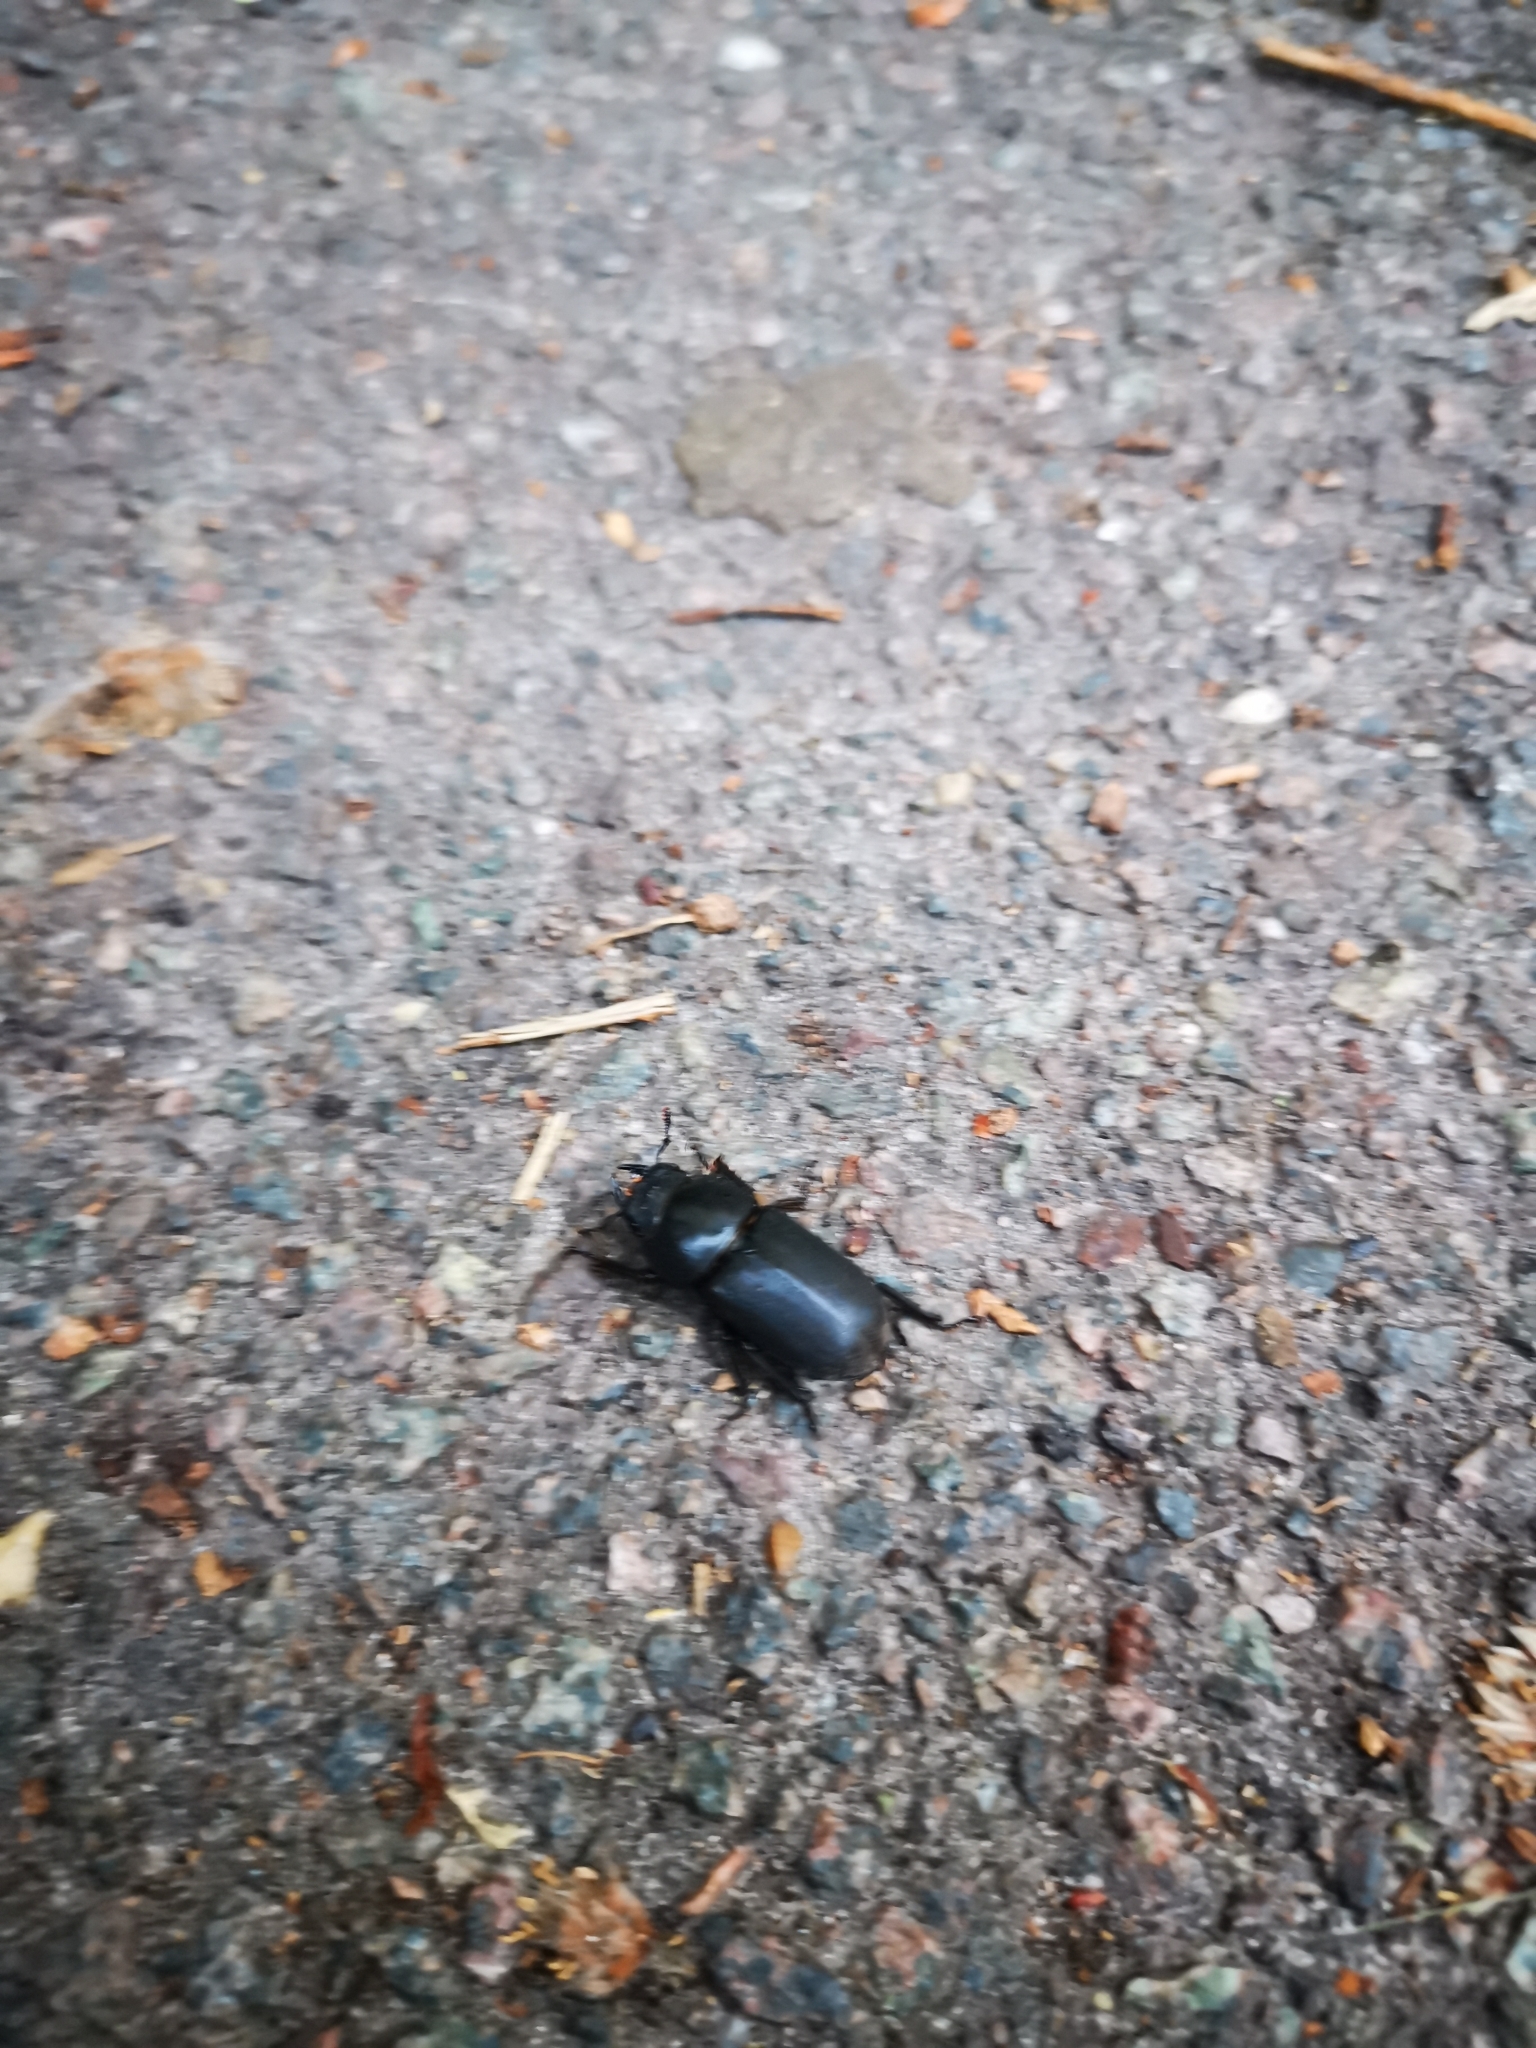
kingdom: Animalia
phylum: Arthropoda
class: Insecta
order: Coleoptera
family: Lucanidae
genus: Dorcus
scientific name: Dorcus parallelipipedus
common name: Lesser stag beetle
